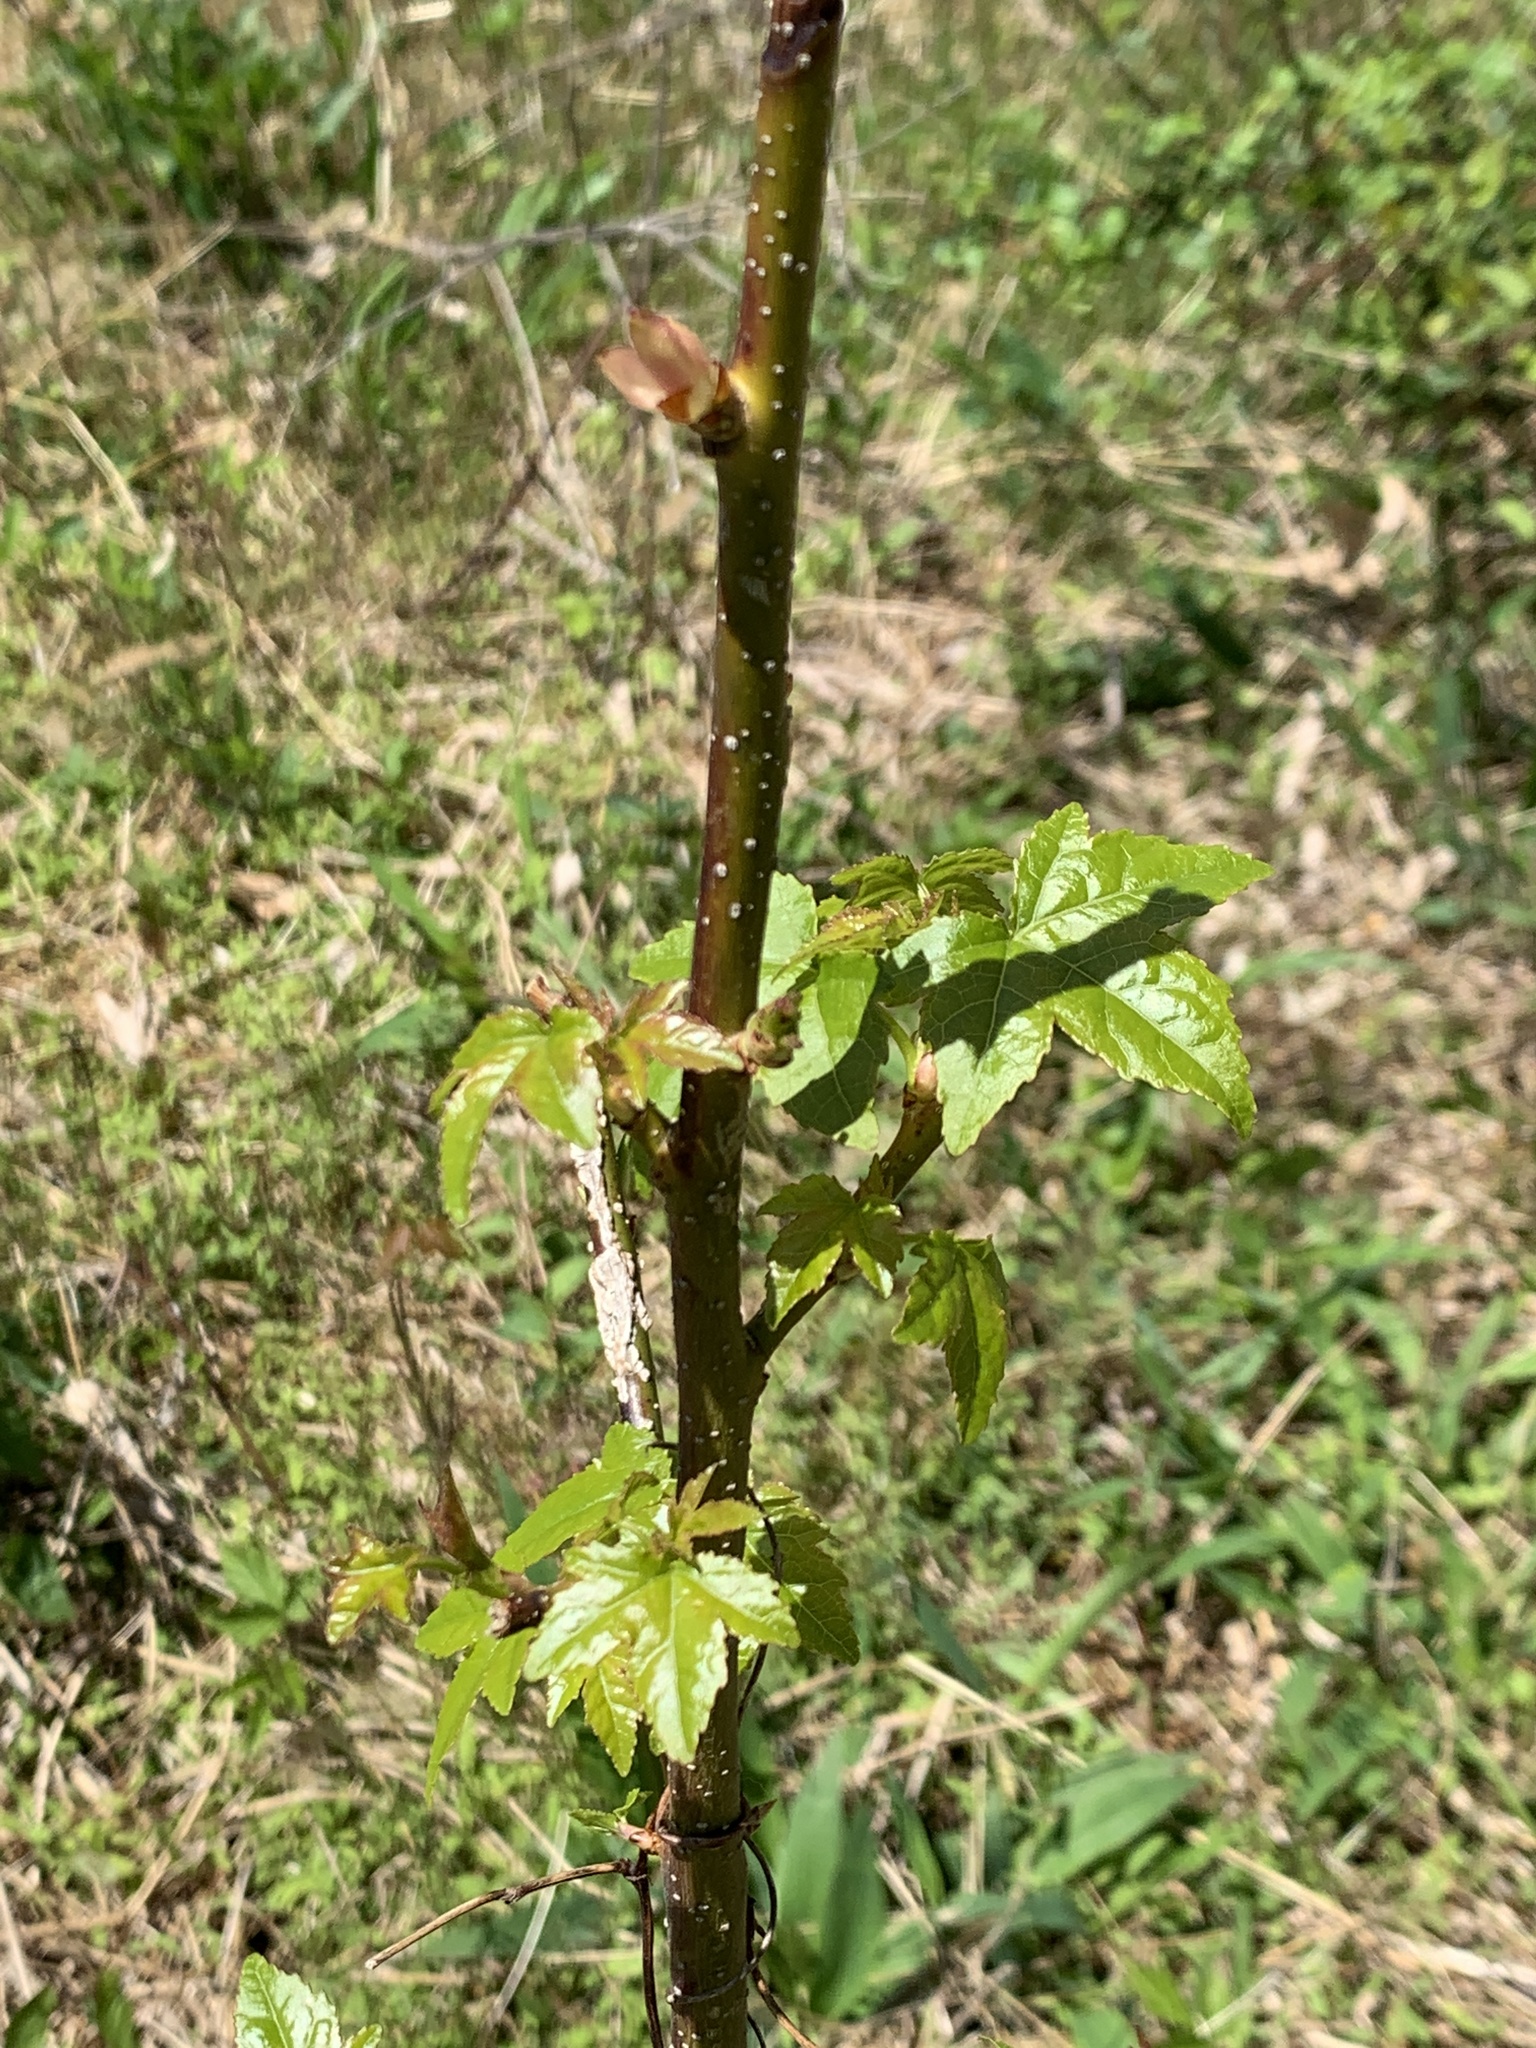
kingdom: Plantae
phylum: Tracheophyta
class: Magnoliopsida
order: Saxifragales
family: Altingiaceae
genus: Liquidambar
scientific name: Liquidambar styraciflua
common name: Sweet gum
